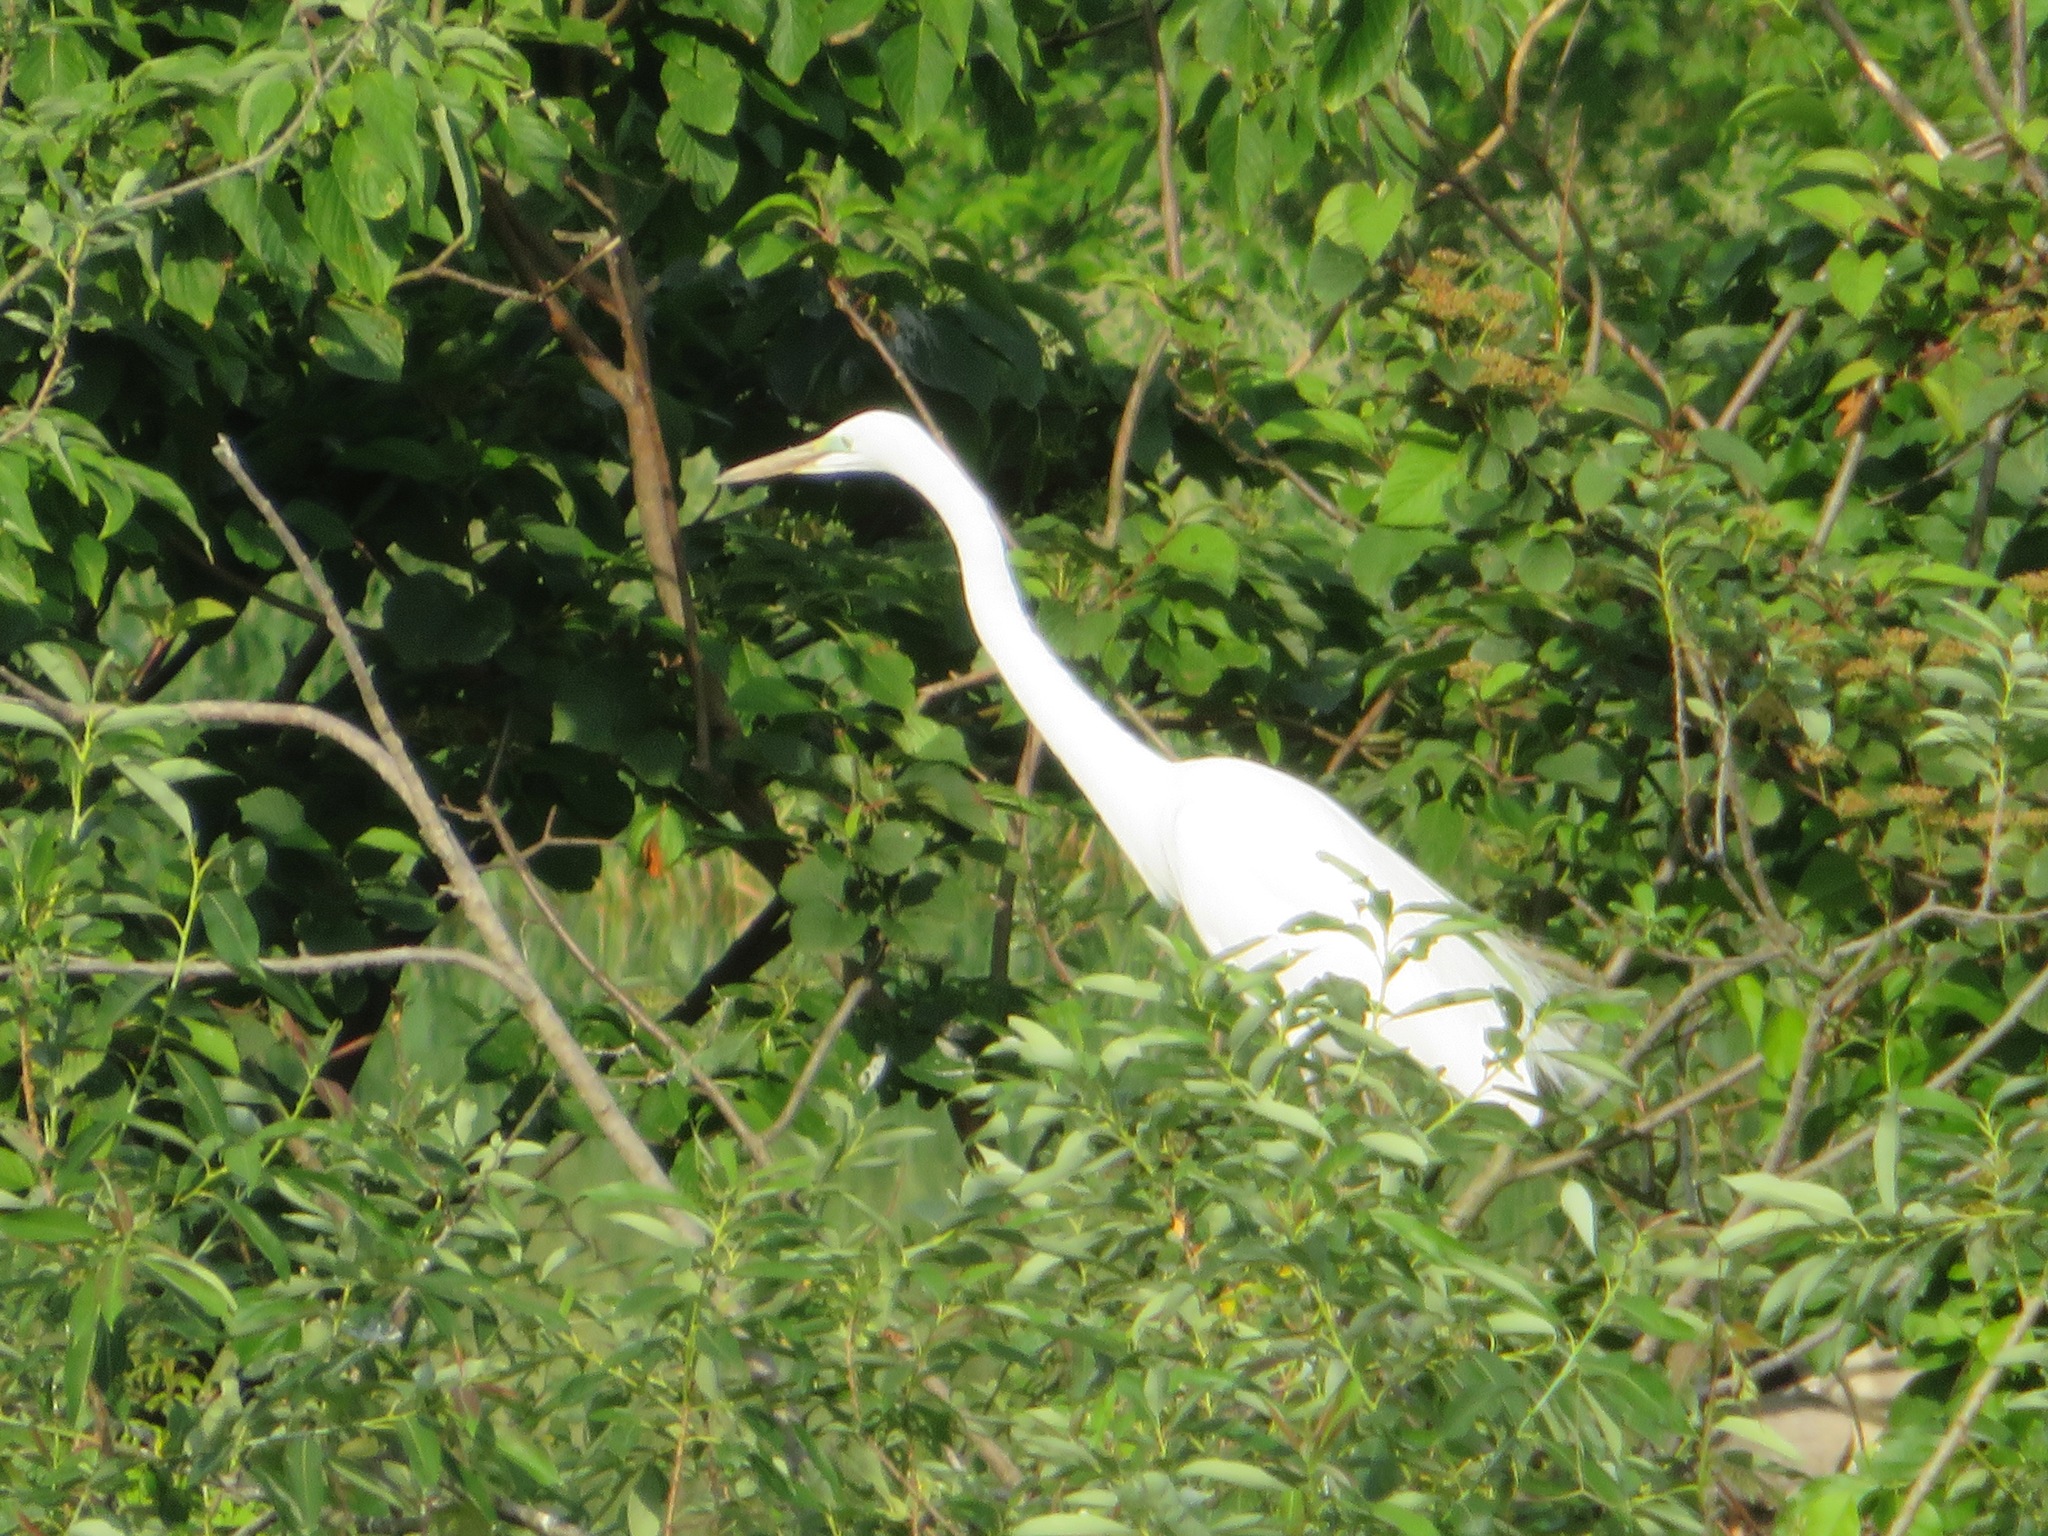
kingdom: Animalia
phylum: Chordata
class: Aves
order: Pelecaniformes
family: Ardeidae
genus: Ardea
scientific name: Ardea alba
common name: Great egret
